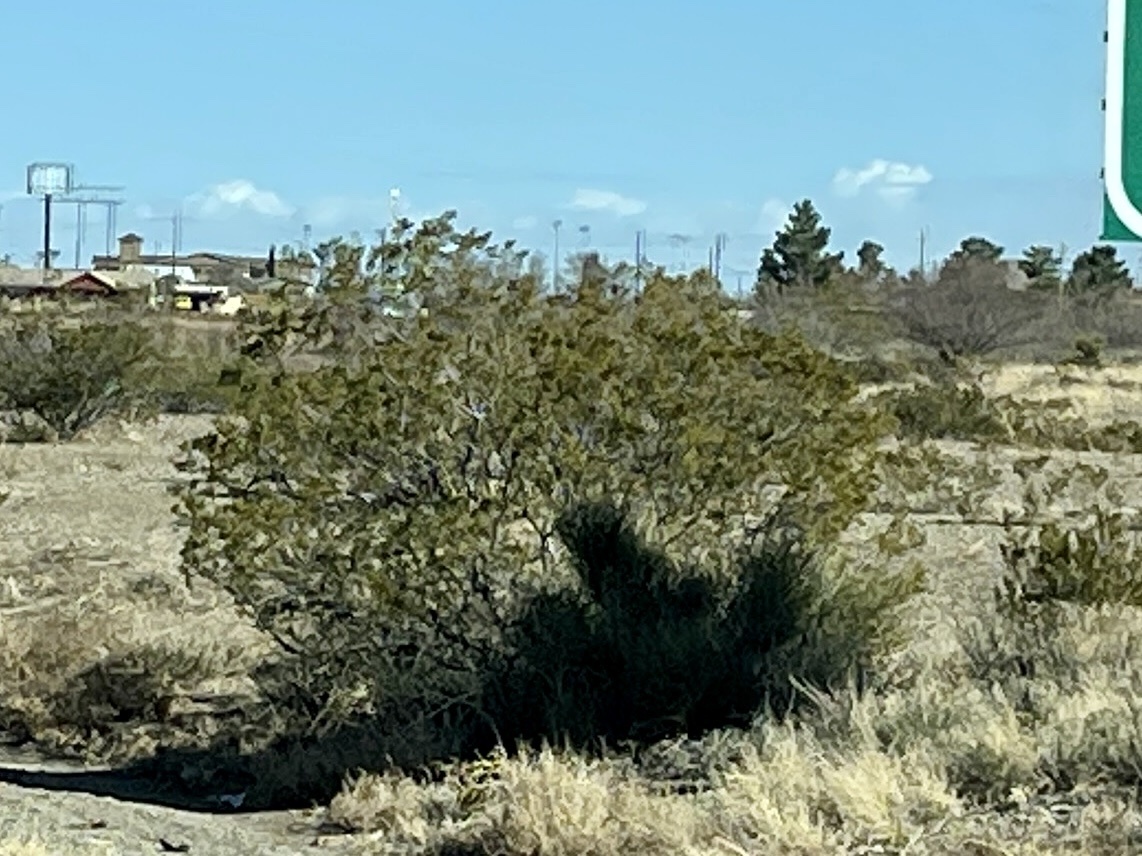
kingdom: Plantae
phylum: Tracheophyta
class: Magnoliopsida
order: Zygophyllales
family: Zygophyllaceae
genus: Larrea
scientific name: Larrea tridentata
